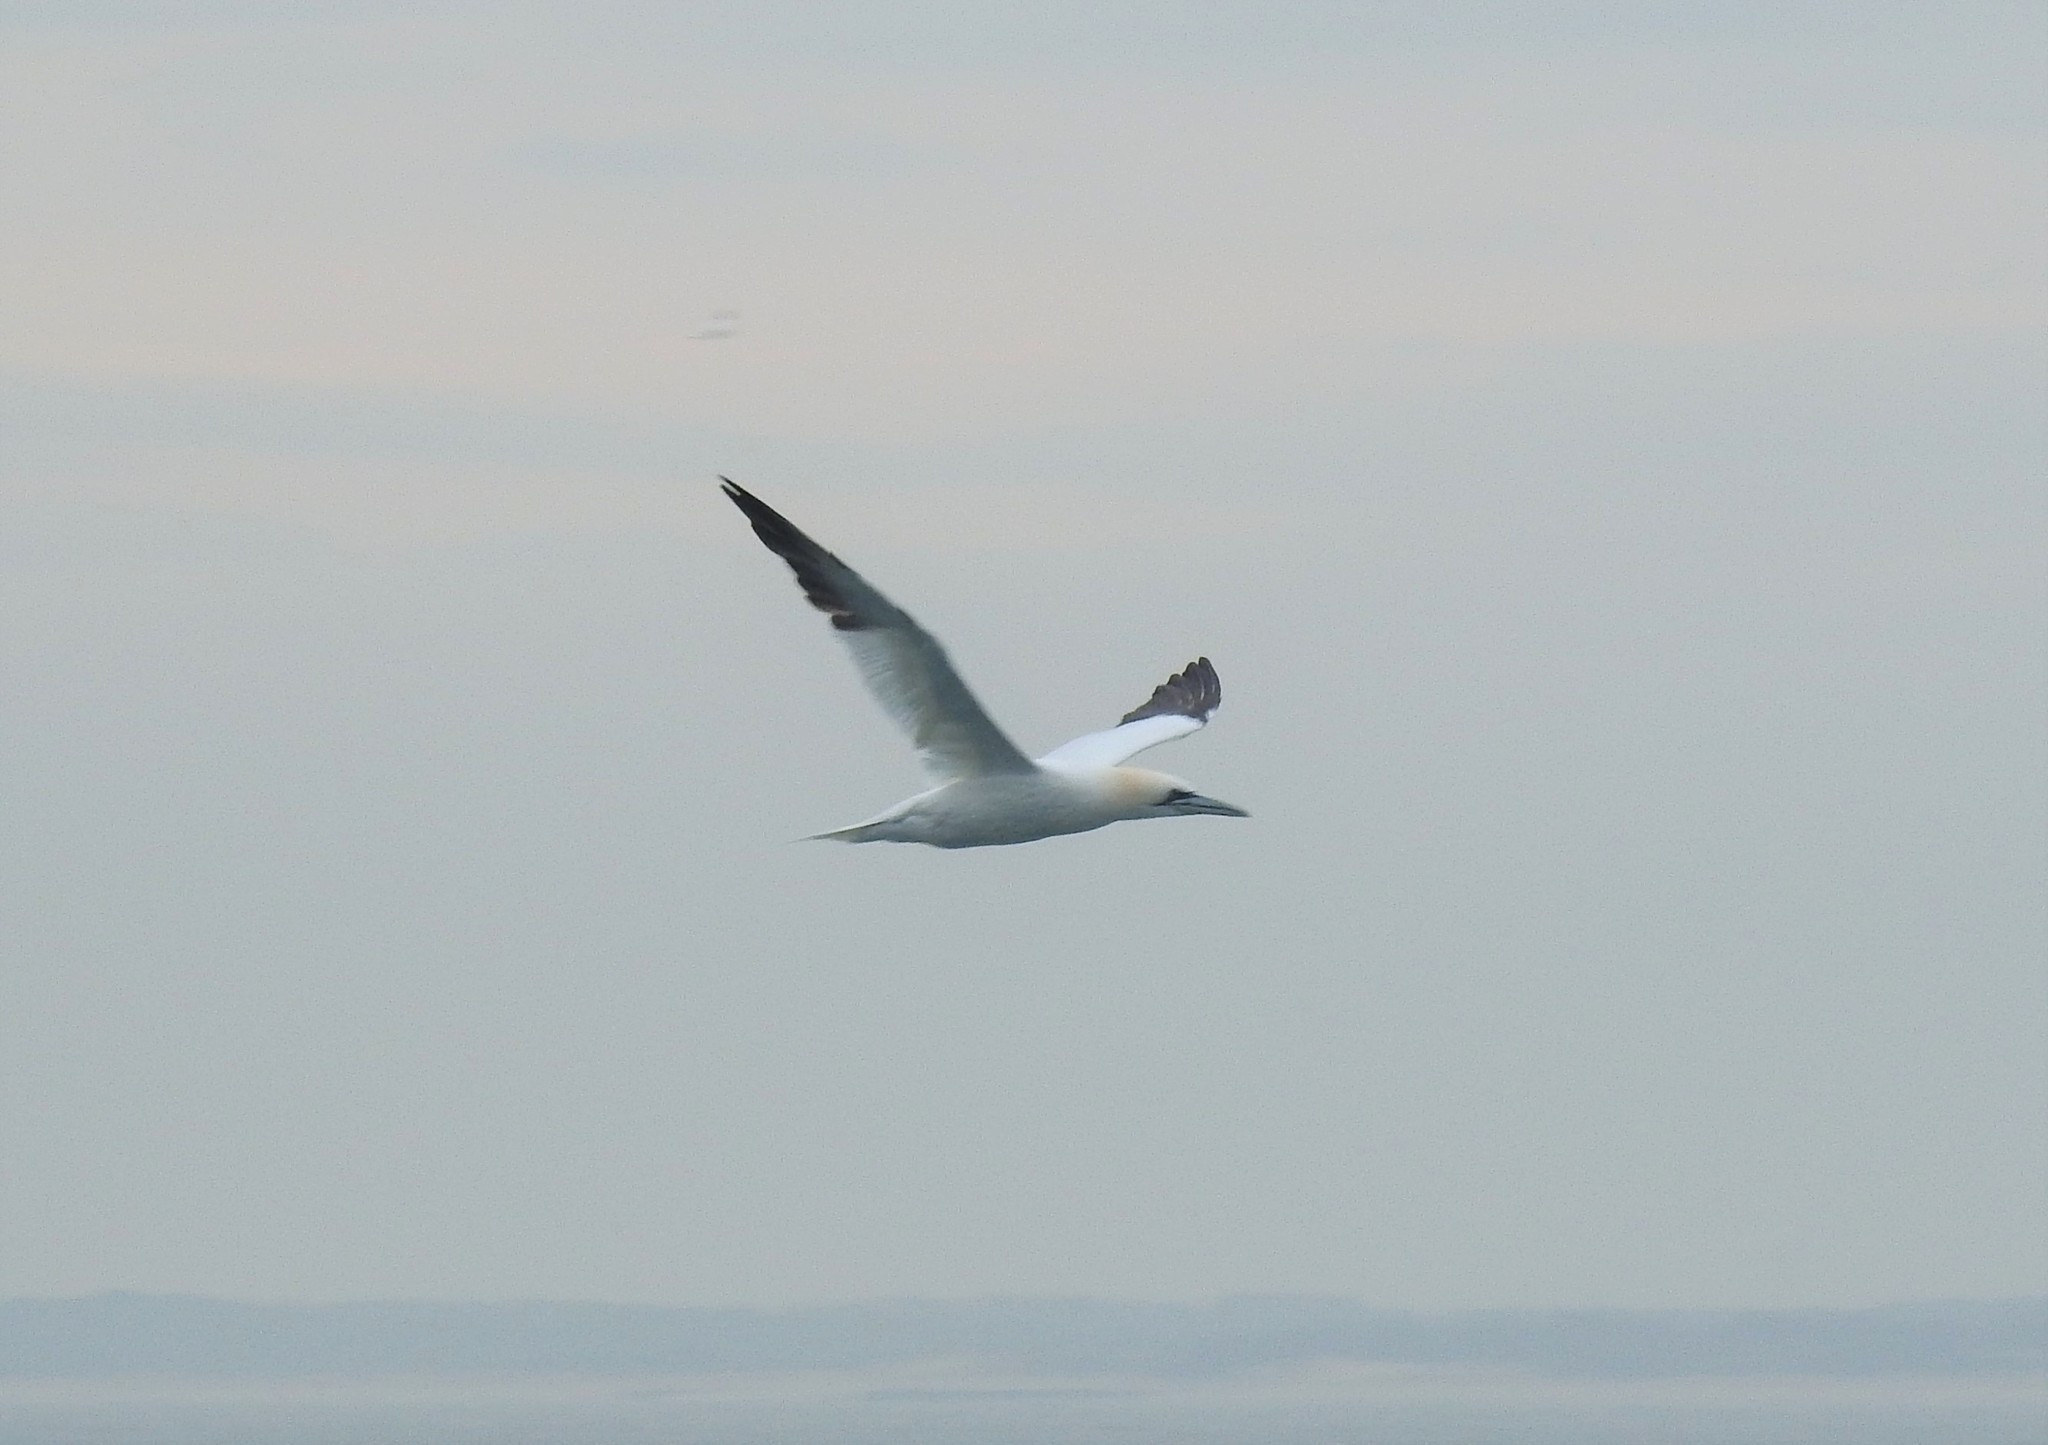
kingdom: Animalia
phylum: Chordata
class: Aves
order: Suliformes
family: Sulidae
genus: Morus
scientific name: Morus bassanus
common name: Northern gannet
